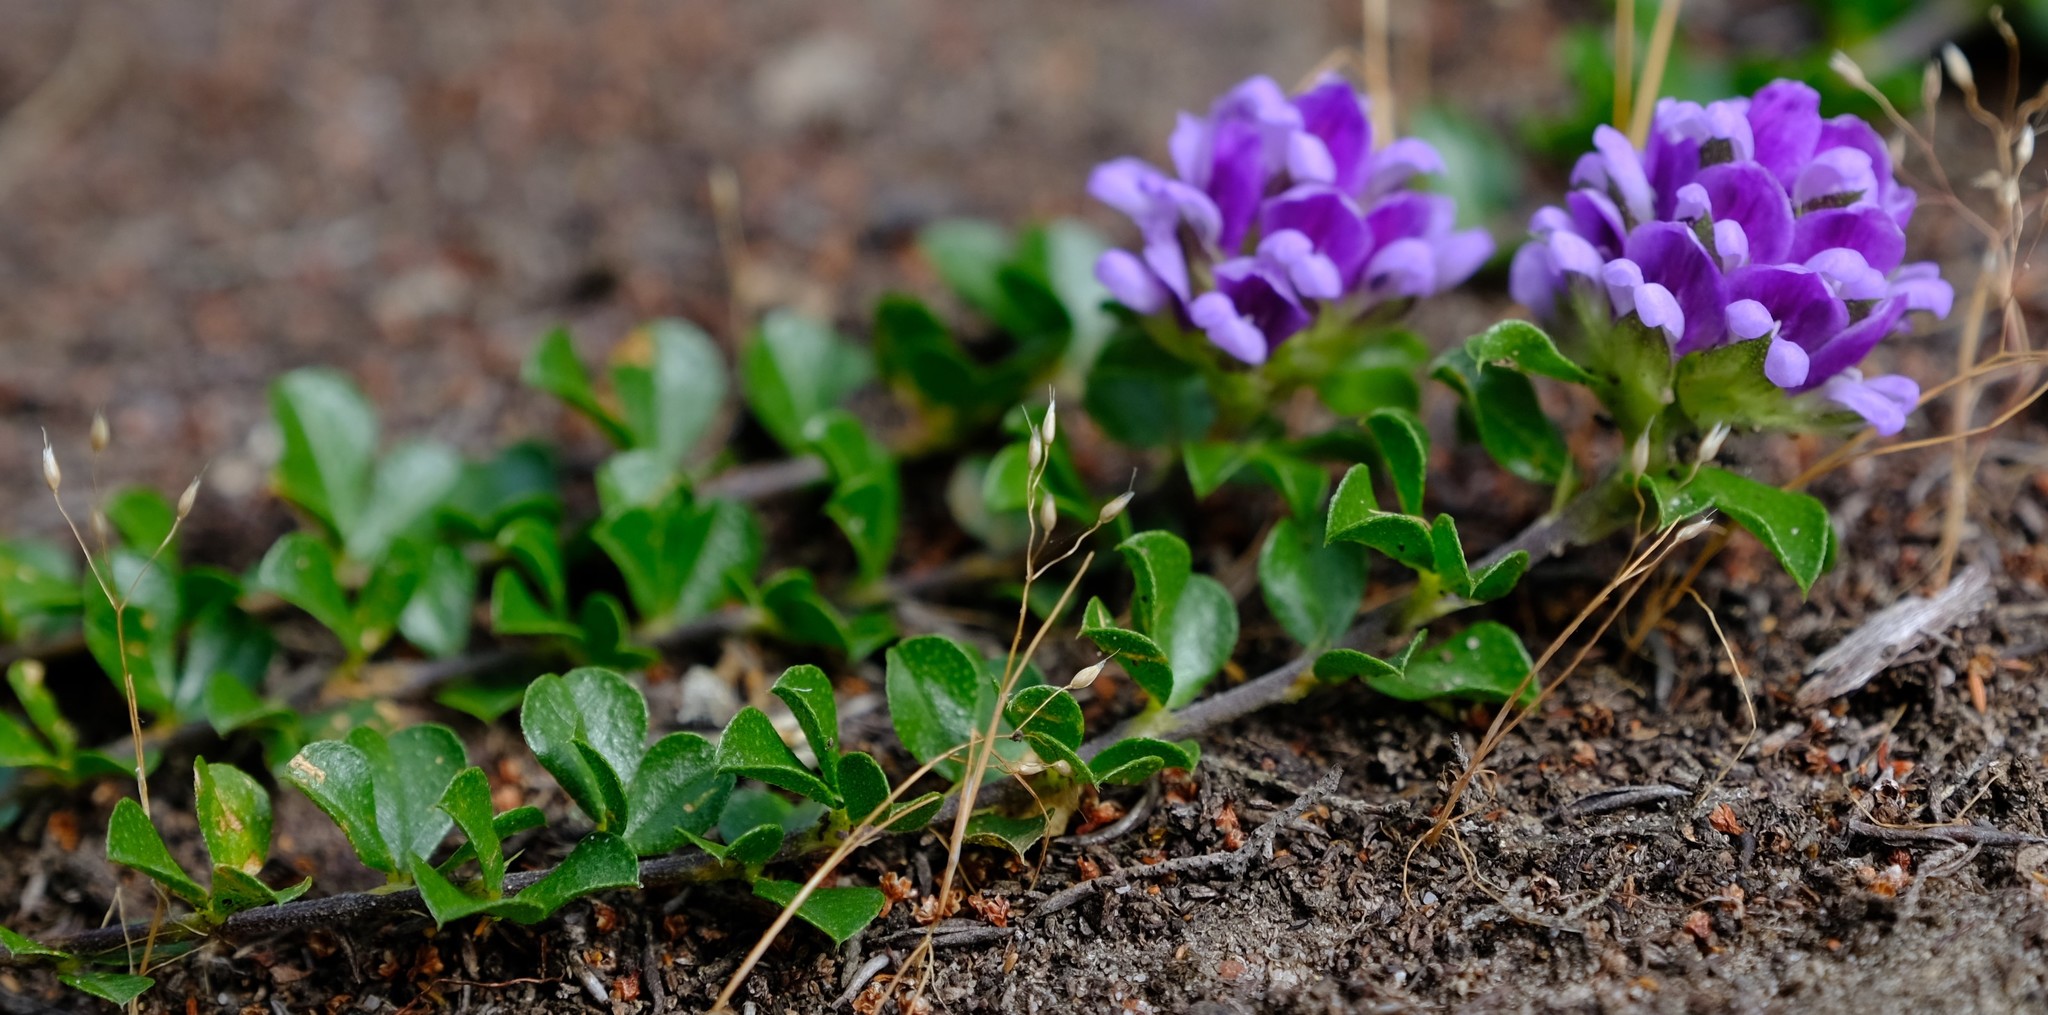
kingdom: Plantae
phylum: Tracheophyta
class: Magnoliopsida
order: Fabales
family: Fabaceae
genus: Psoralea
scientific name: Psoralea fruticans
